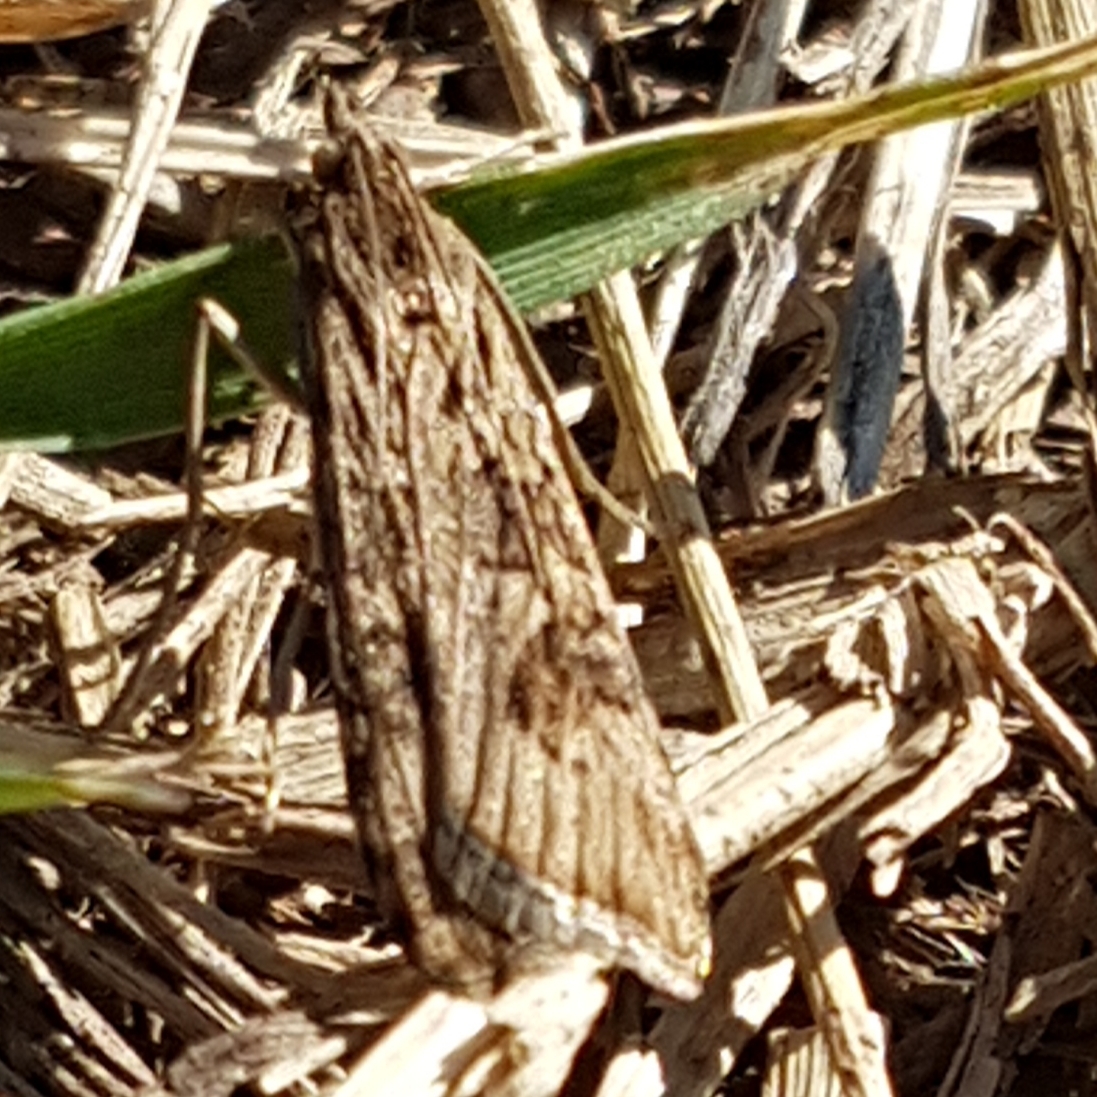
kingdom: Animalia
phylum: Arthropoda
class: Insecta
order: Lepidoptera
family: Crambidae
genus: Nomophila
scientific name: Nomophila noctuella
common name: Rush veneer
